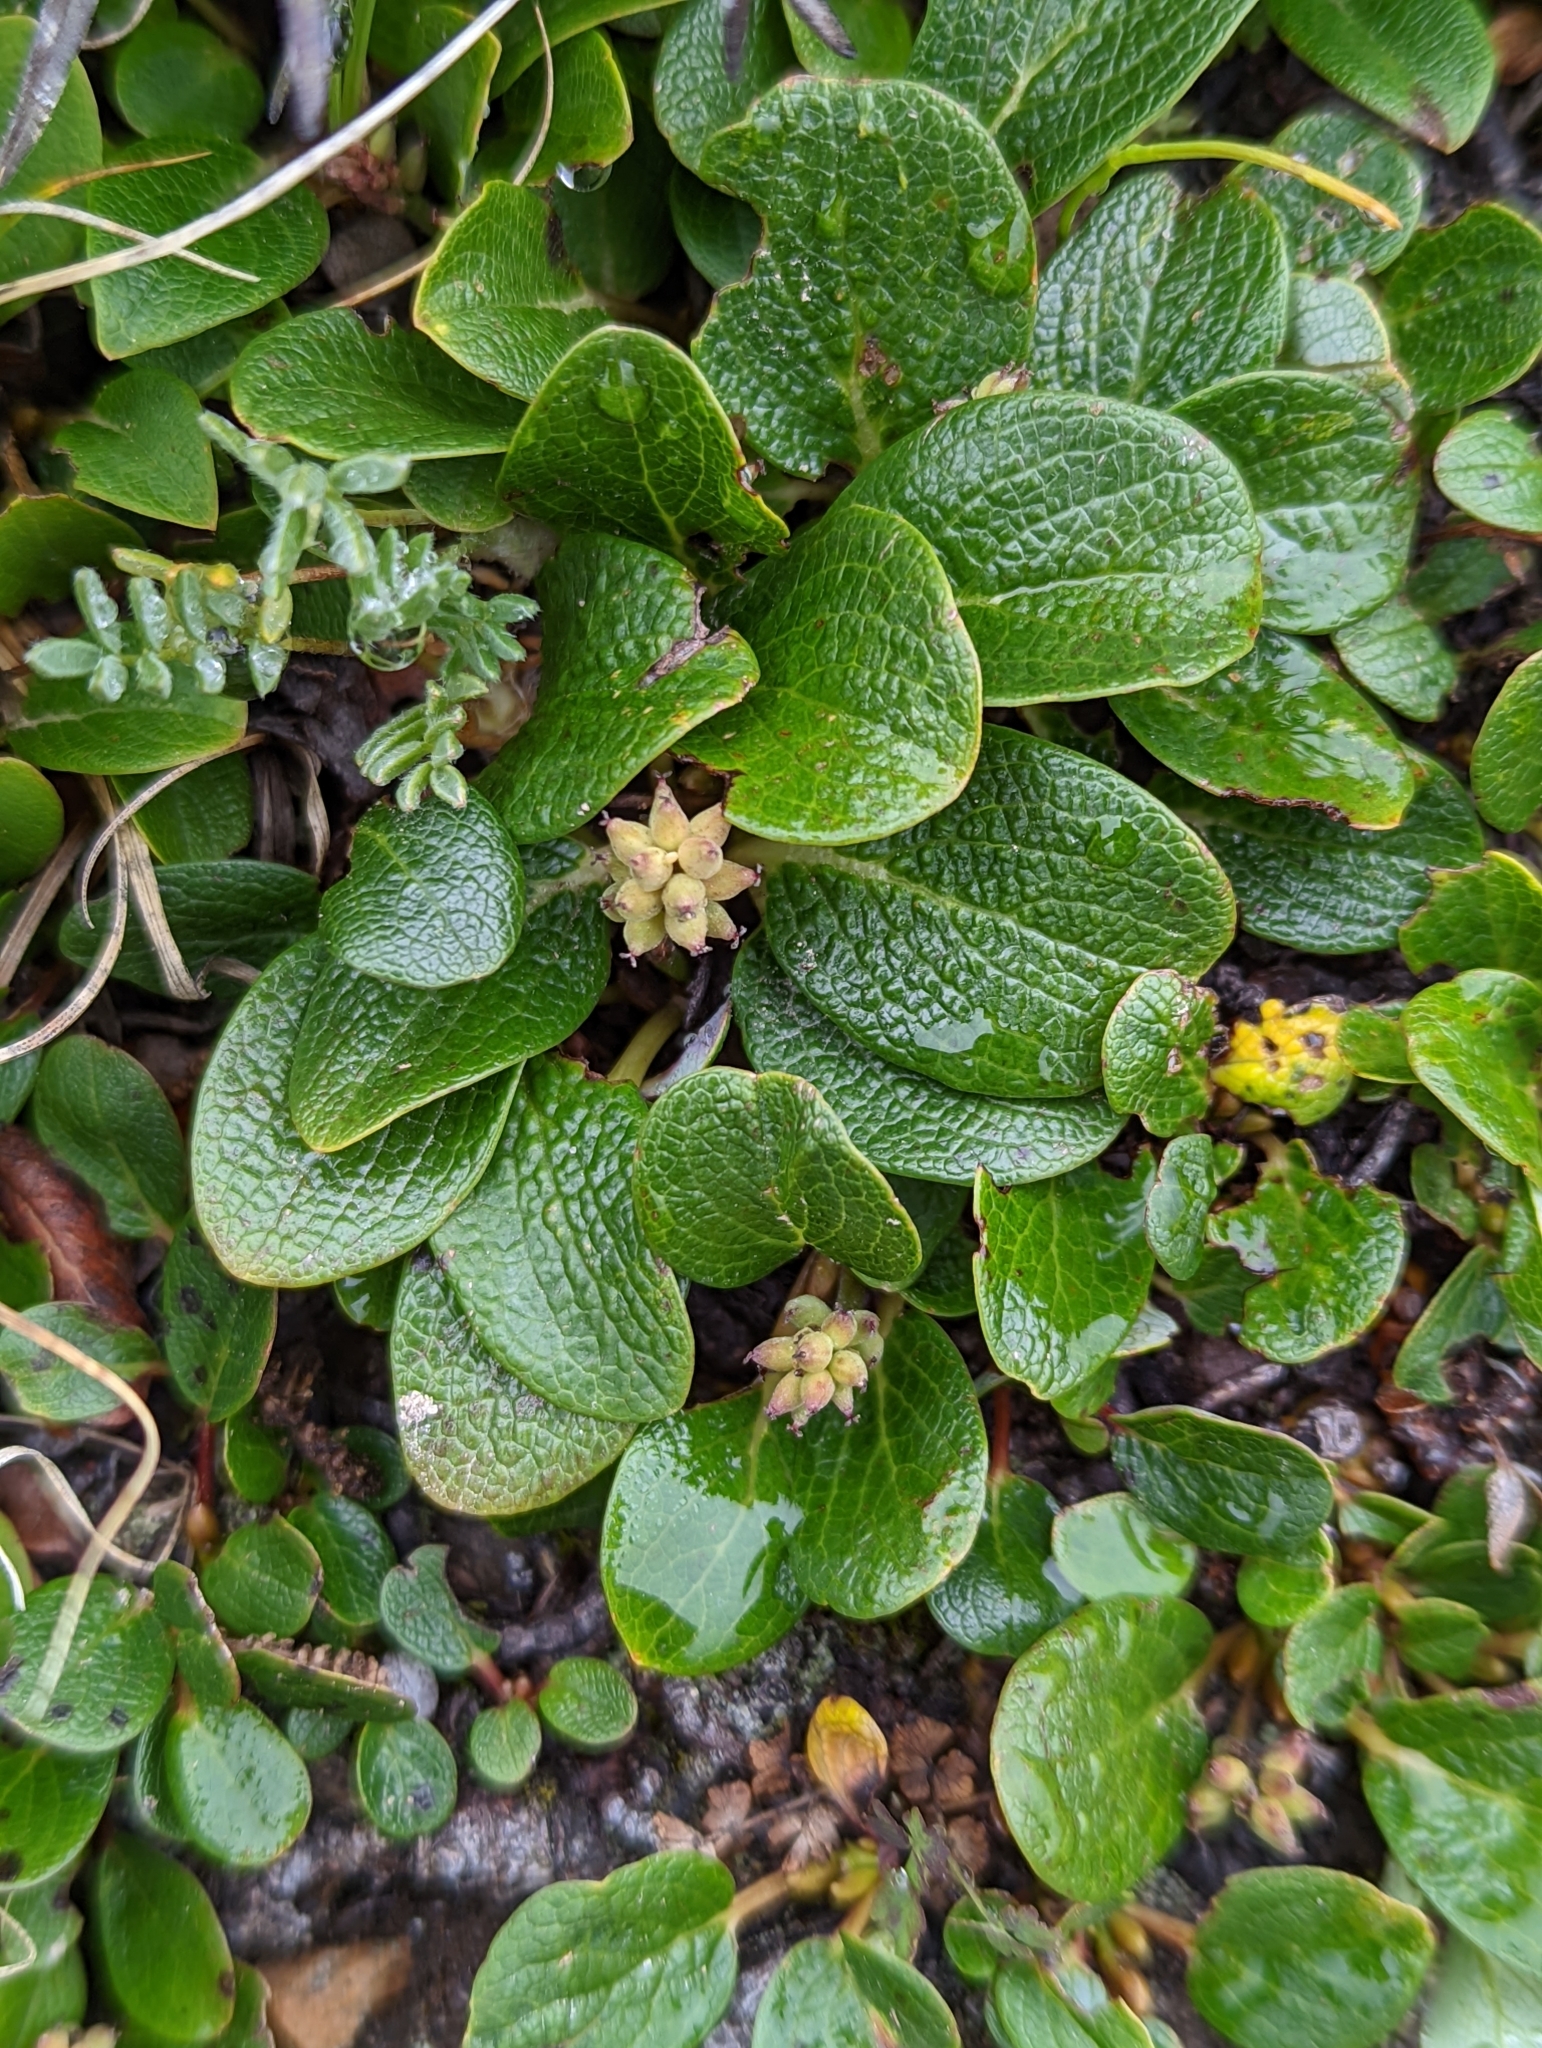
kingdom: Plantae
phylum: Tracheophyta
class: Magnoliopsida
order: Malpighiales
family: Salicaceae
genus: Salix
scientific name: Salix nivalis
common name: Dwarf snow willow
